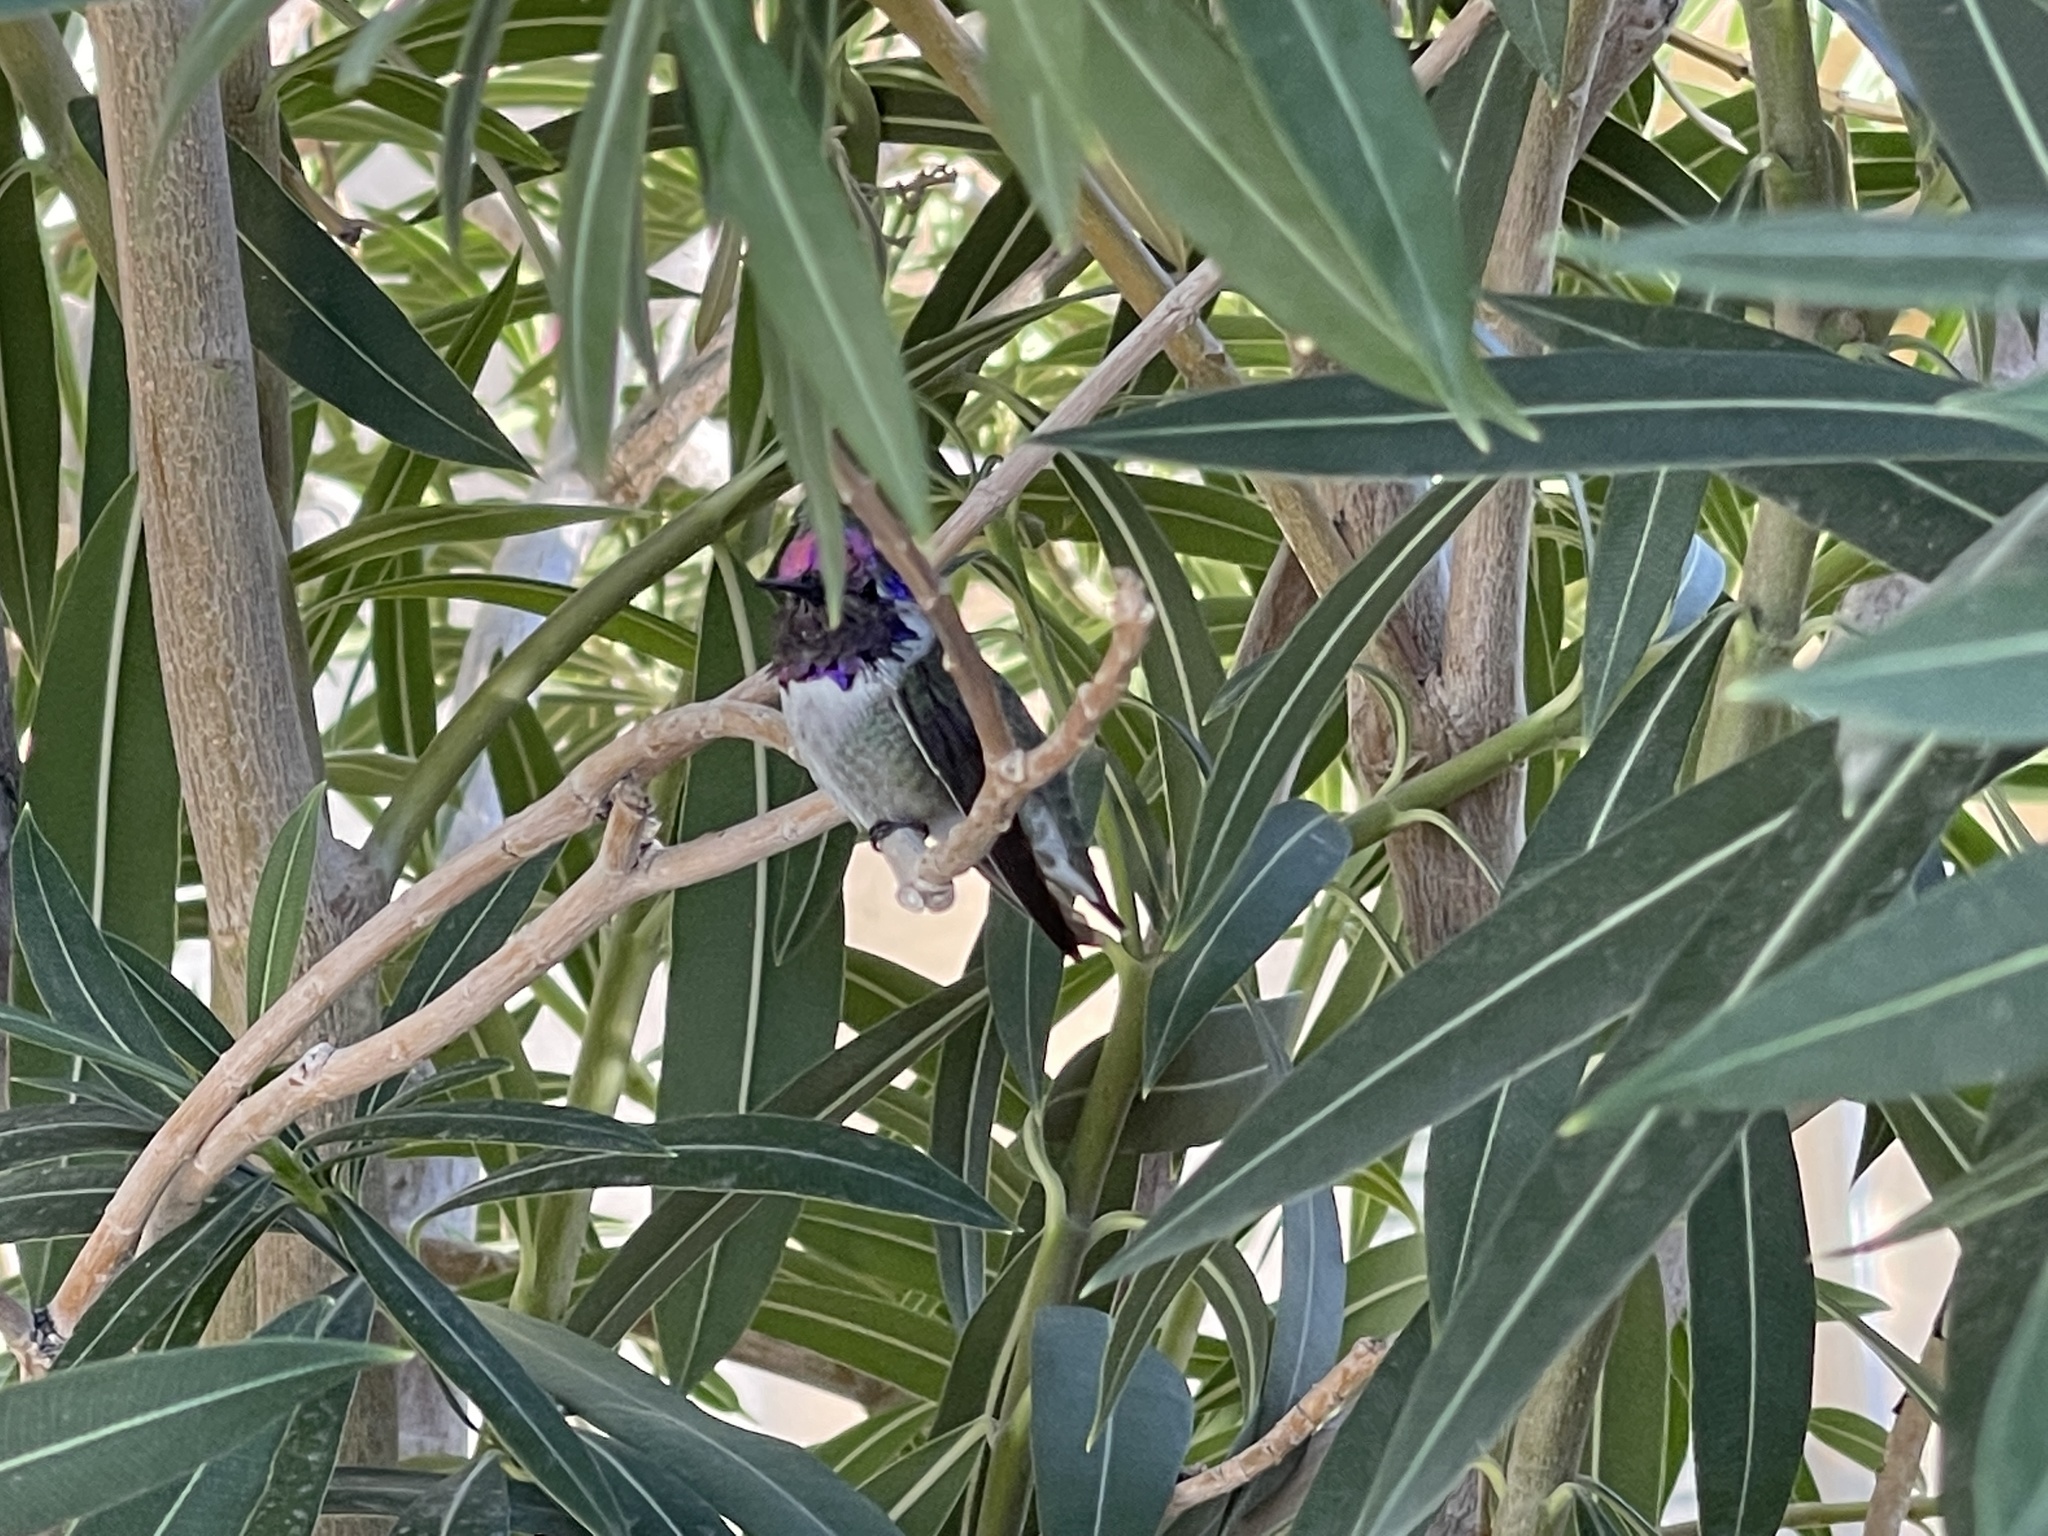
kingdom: Animalia
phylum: Chordata
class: Aves
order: Apodiformes
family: Trochilidae
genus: Calypte
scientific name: Calypte costae
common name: Costa's hummingbird
